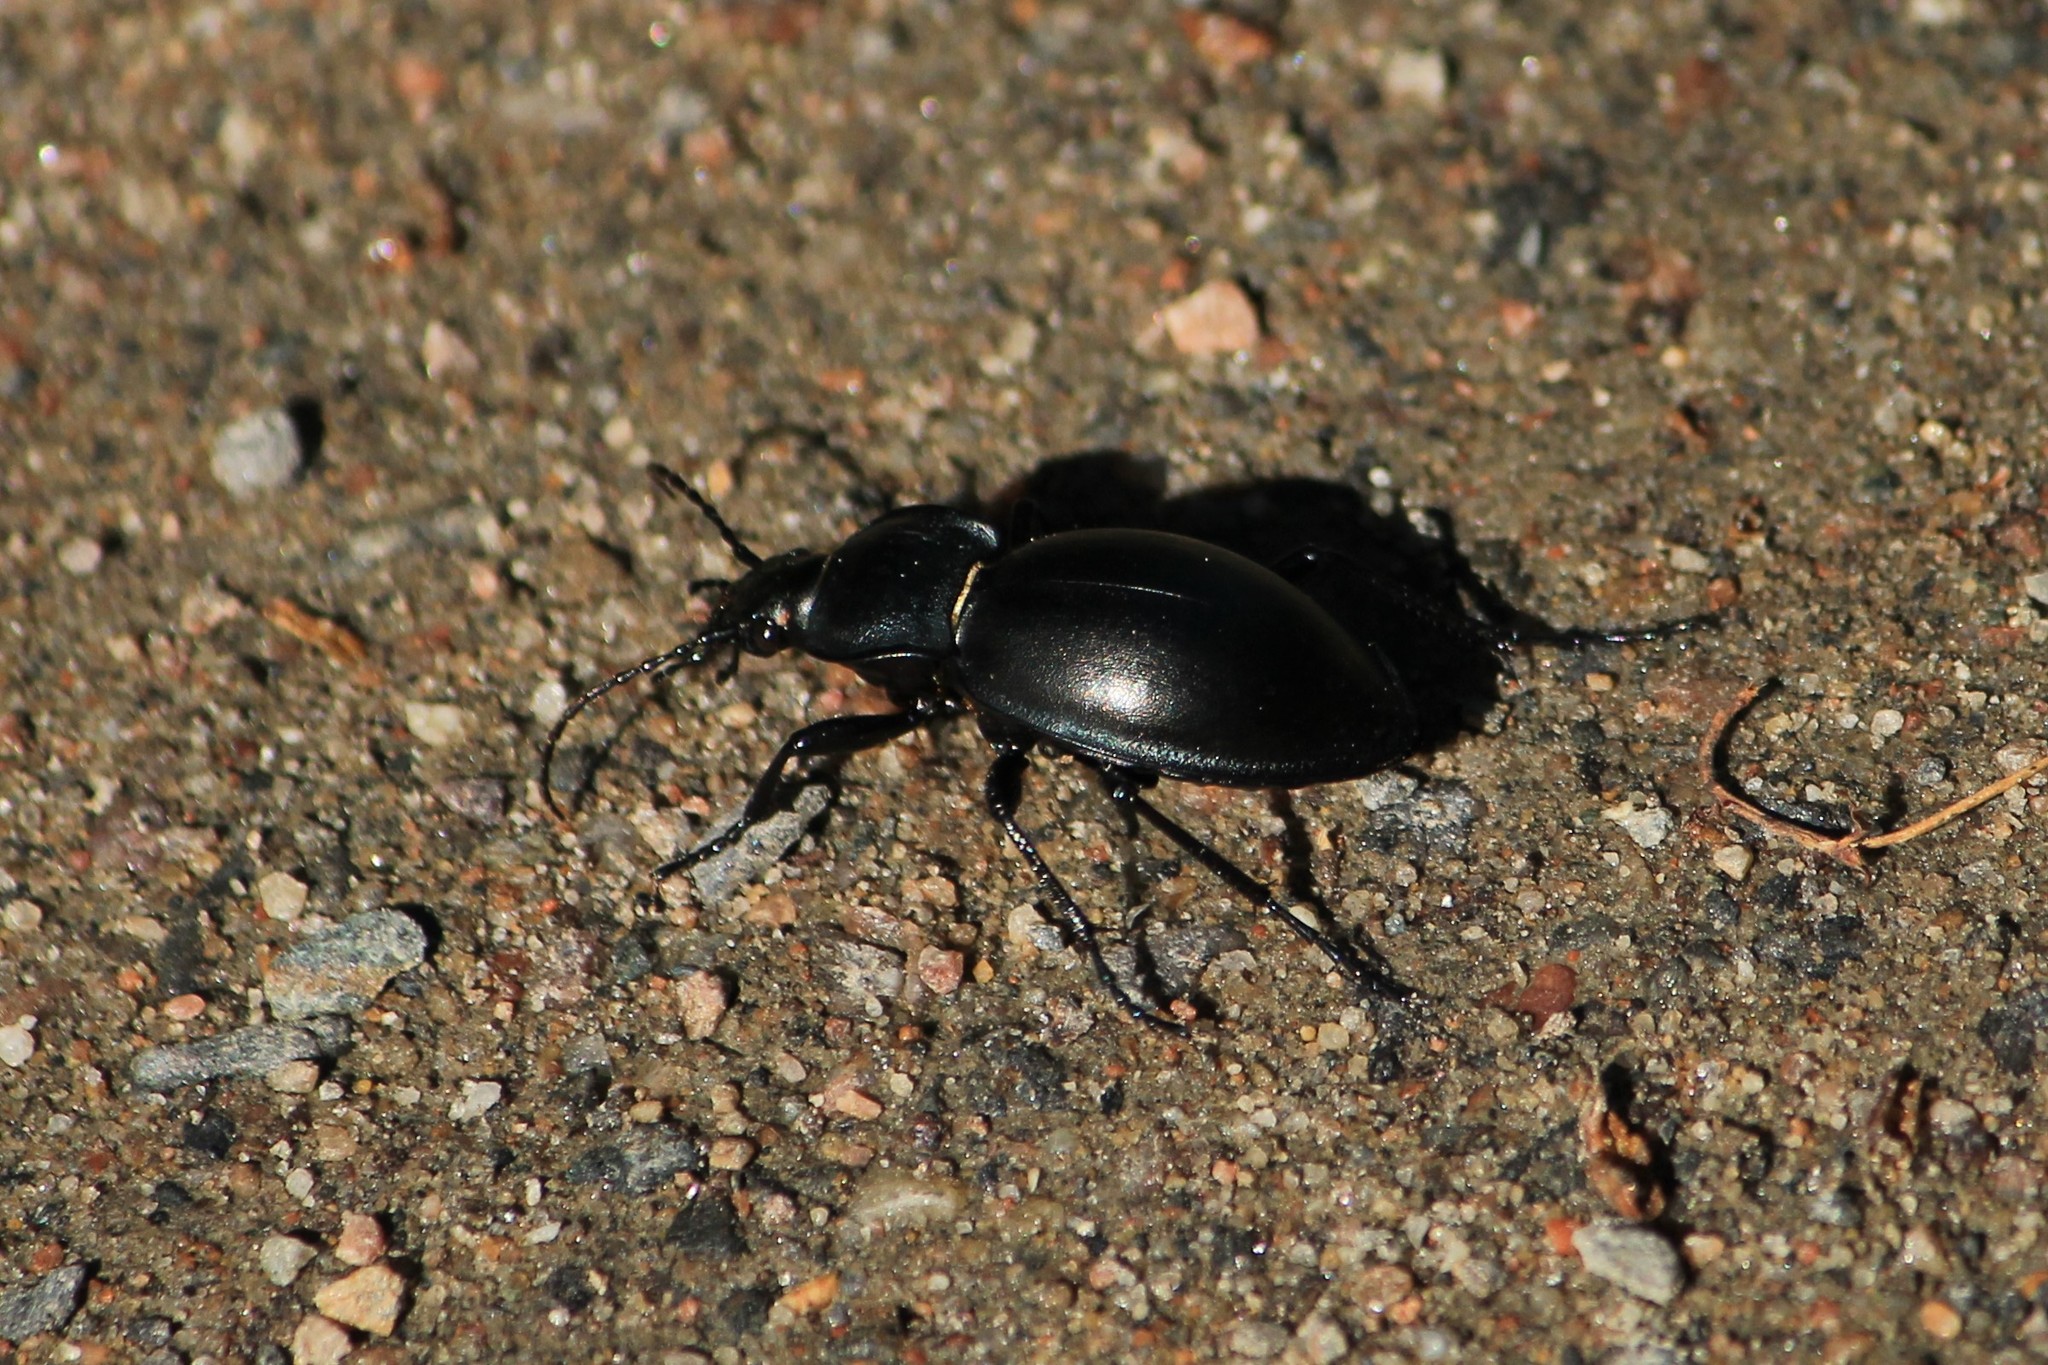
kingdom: Animalia
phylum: Arthropoda
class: Insecta
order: Coleoptera
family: Carabidae
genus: Carabus
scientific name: Carabus glabratus
